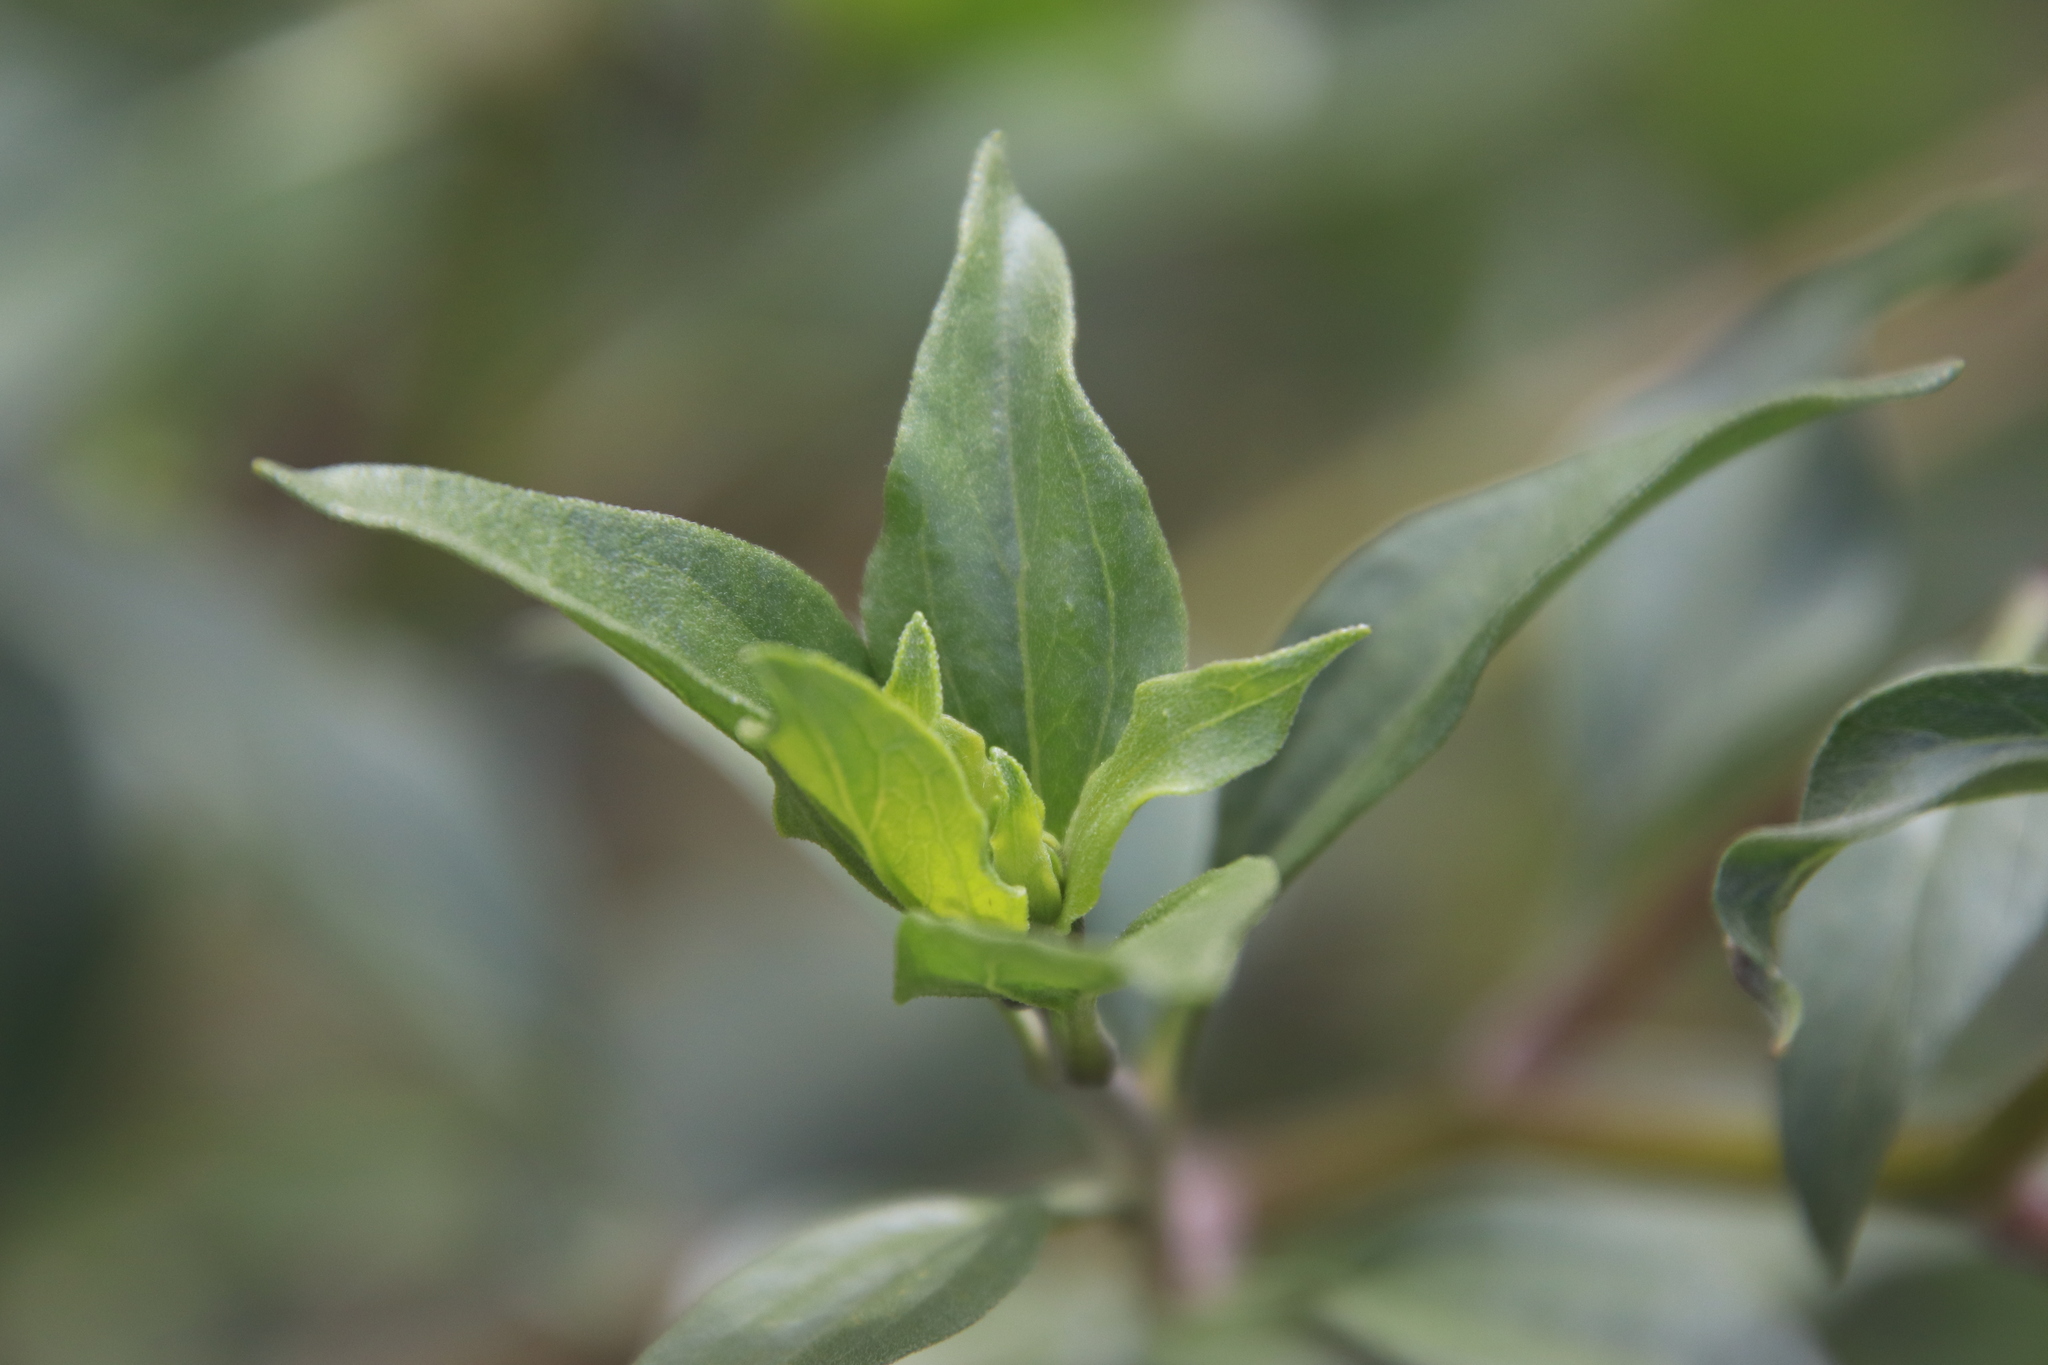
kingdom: Plantae
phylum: Tracheophyta
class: Magnoliopsida
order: Asterales
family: Asteraceae
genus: Encelia
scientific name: Encelia californica
